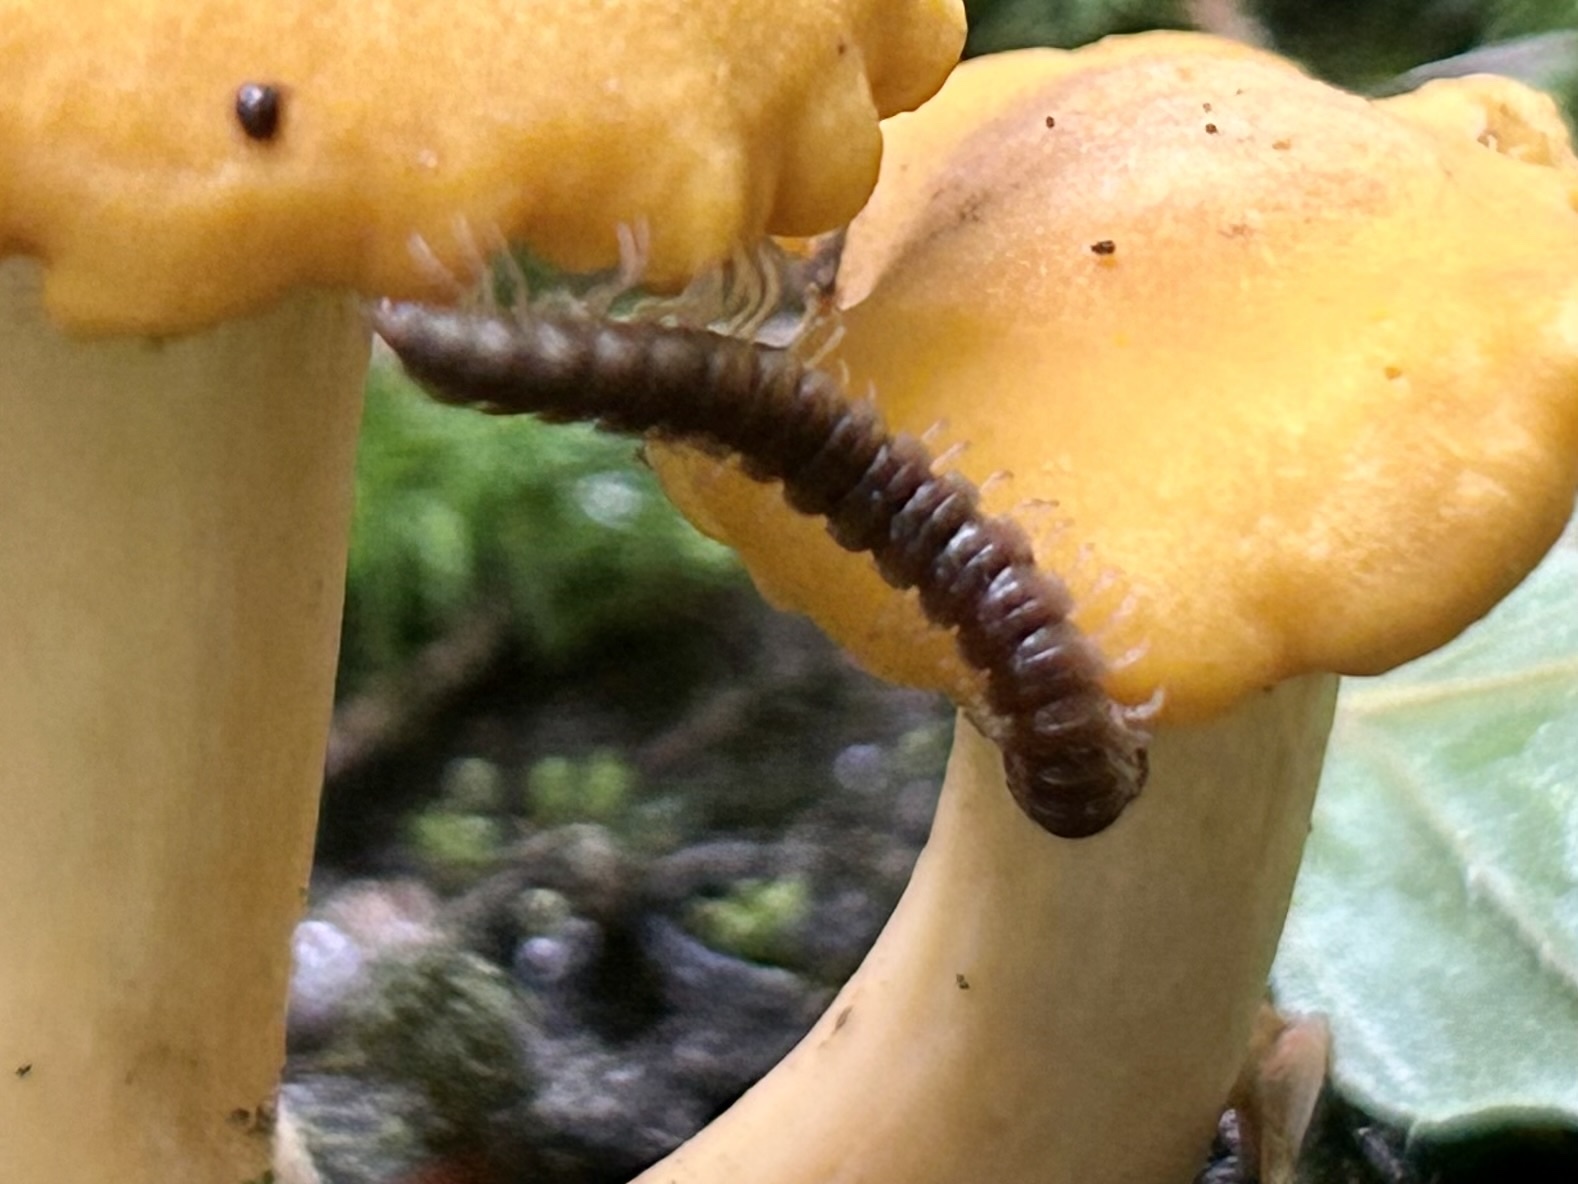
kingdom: Animalia
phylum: Arthropoda
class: Diplopoda
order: Polydesmida
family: Paradoxosomatidae
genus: Oxidus
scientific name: Oxidus gracilis
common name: Greenhouse millipede
